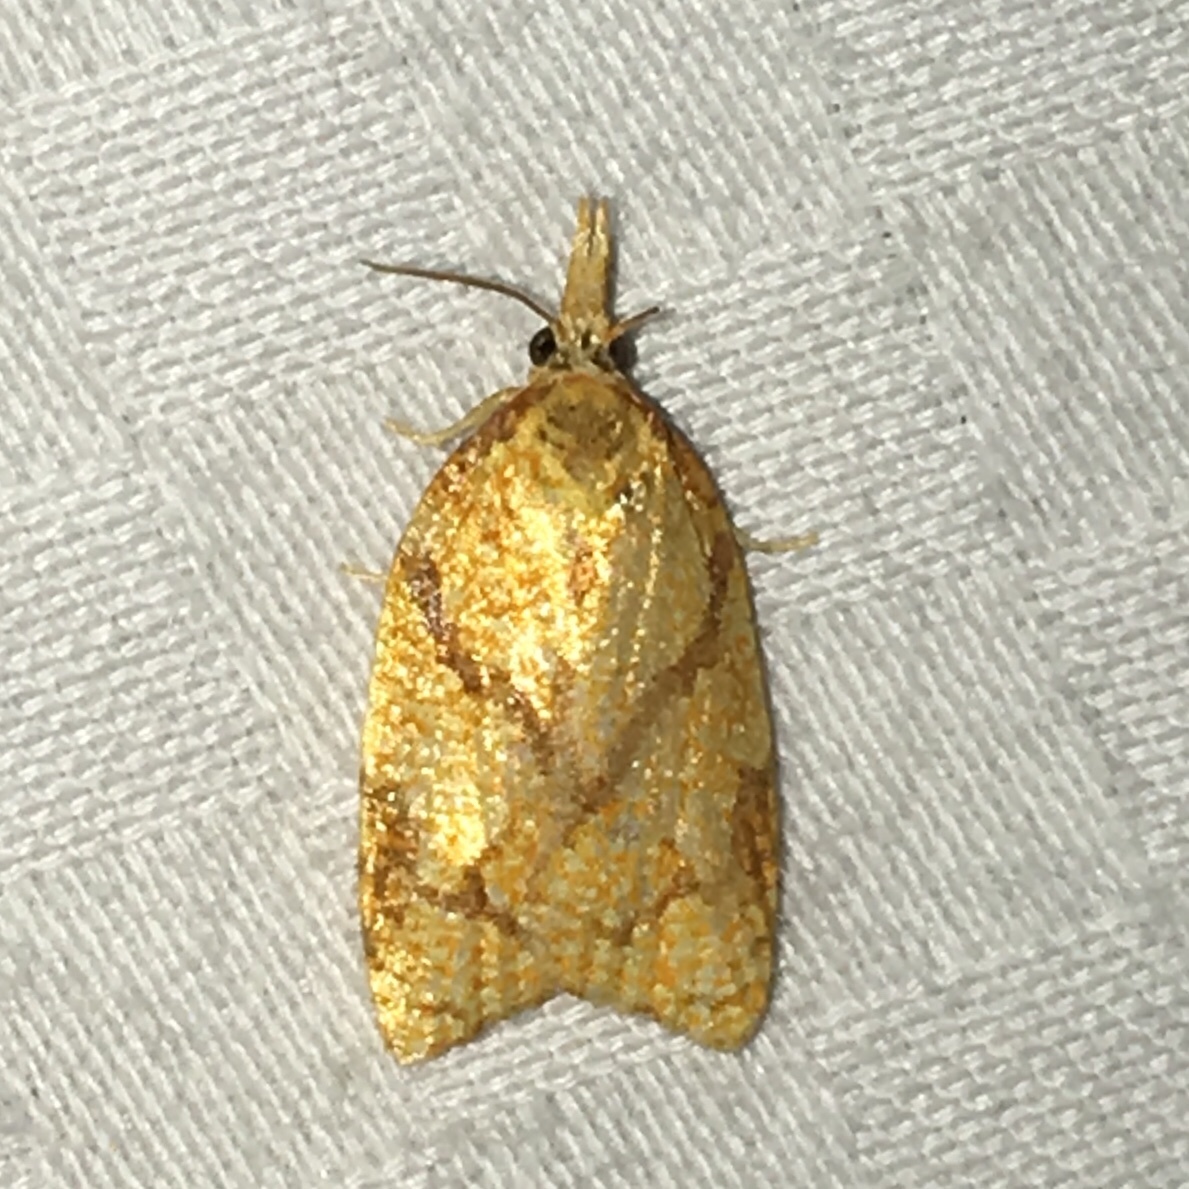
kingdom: Animalia
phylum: Arthropoda
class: Insecta
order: Lepidoptera
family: Tortricidae
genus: Cenopis
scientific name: Cenopis reticulatana
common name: Reticulated fruitworm moth
